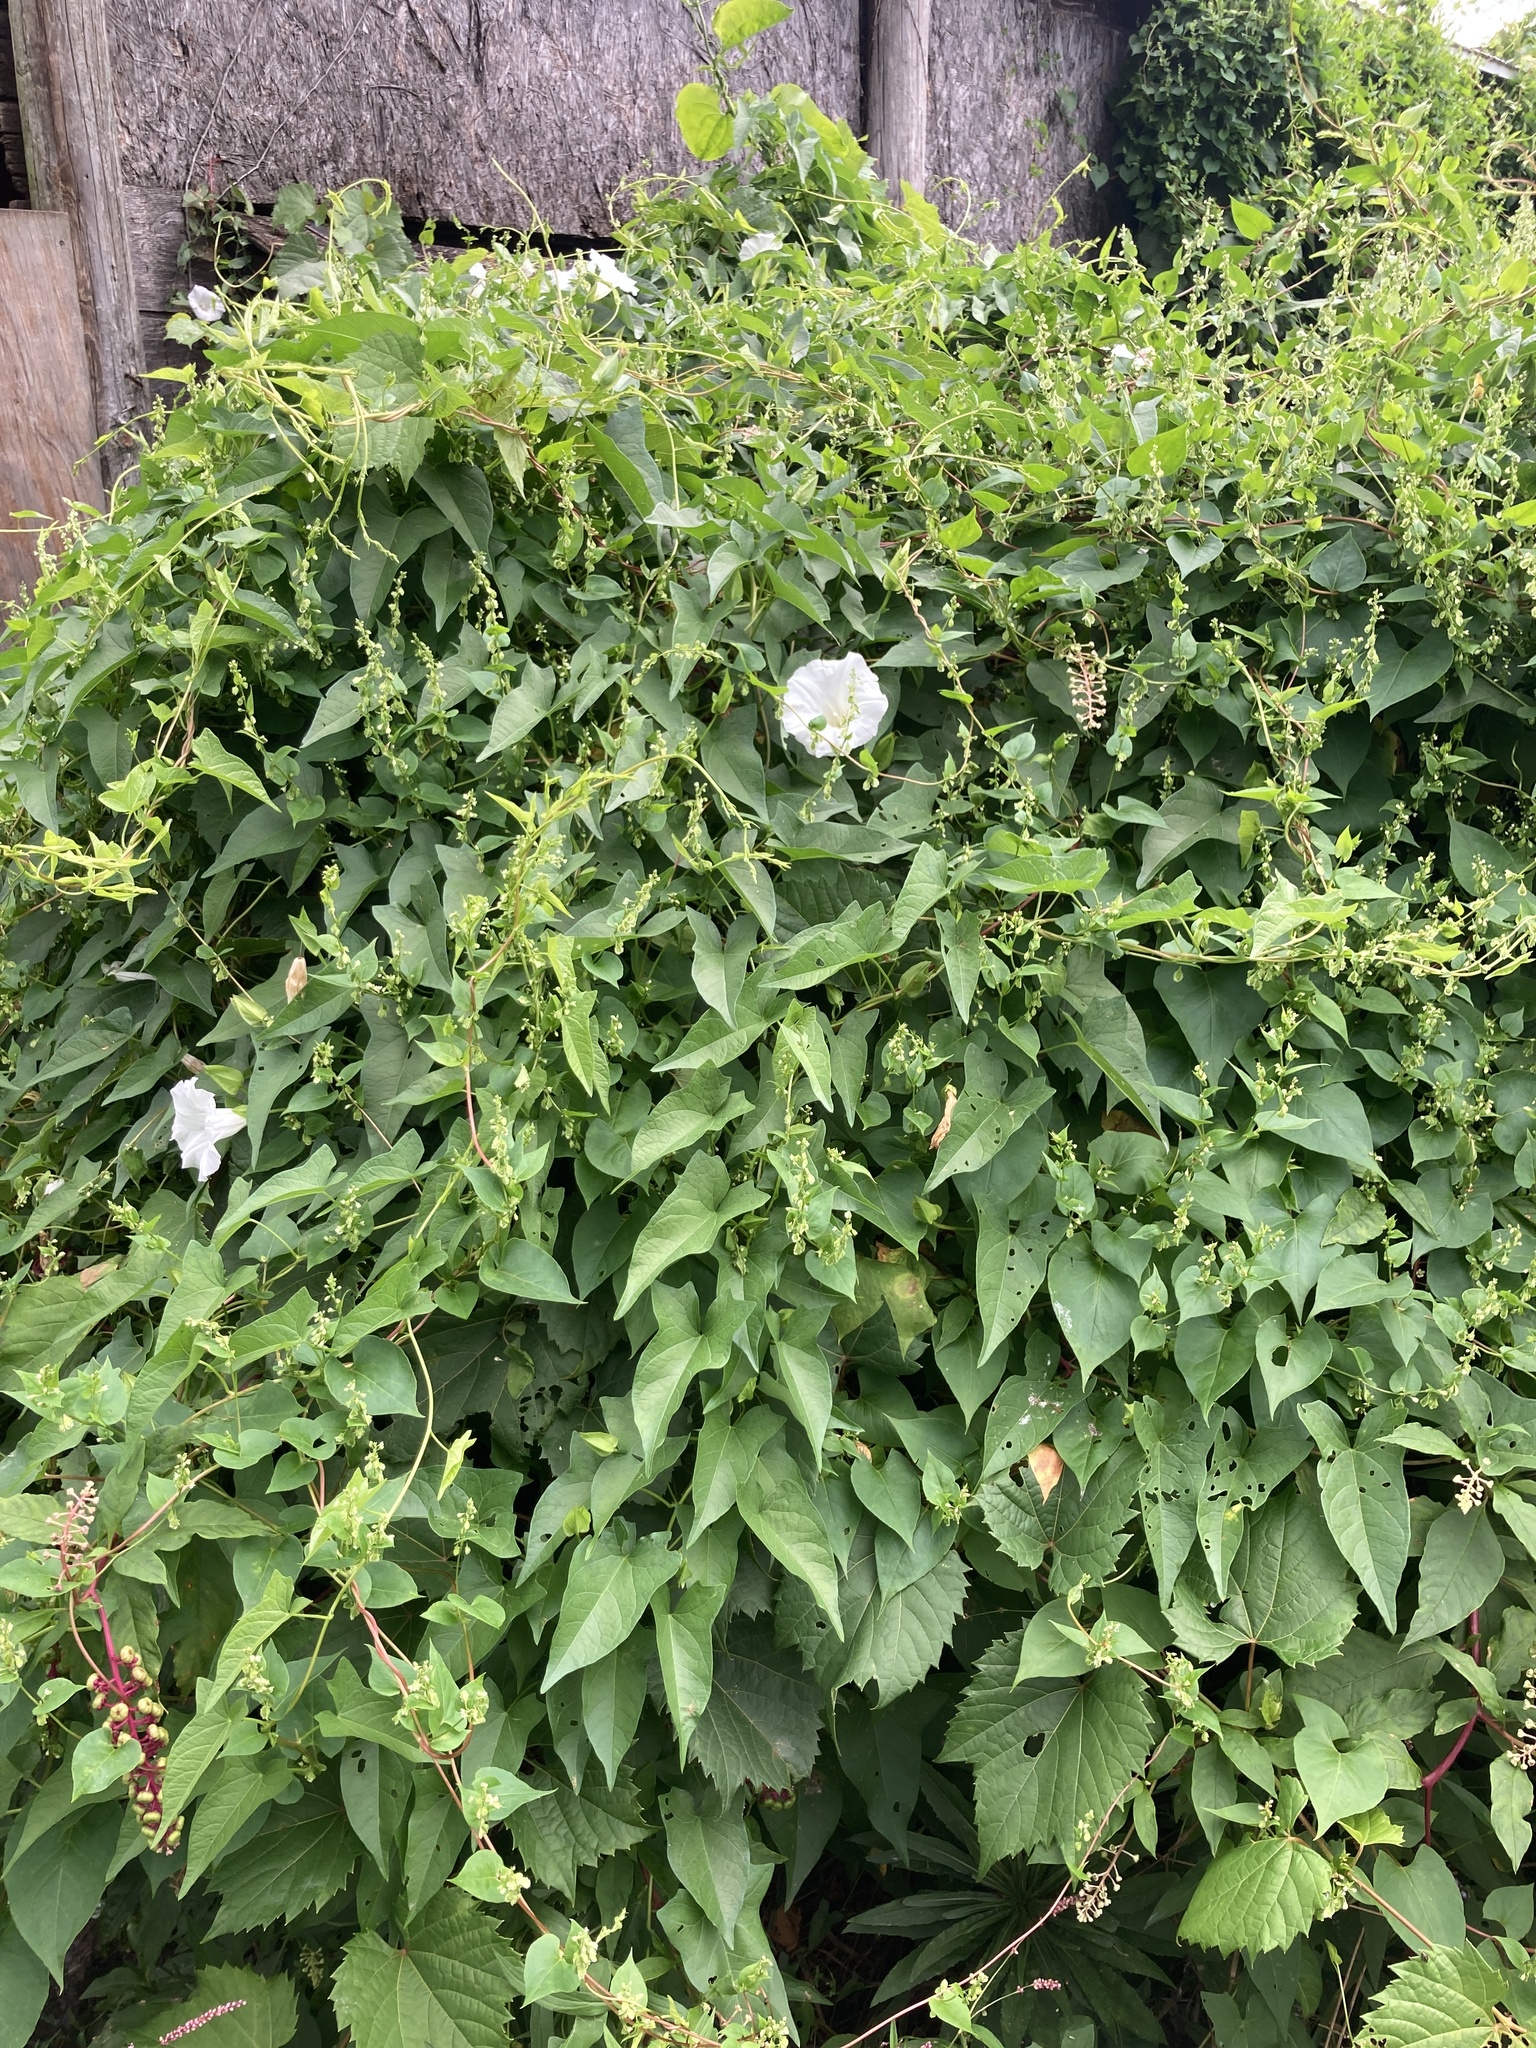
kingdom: Plantae
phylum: Tracheophyta
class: Magnoliopsida
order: Solanales
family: Convolvulaceae
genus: Calystegia
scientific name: Calystegia sepium
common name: Hedge bindweed
